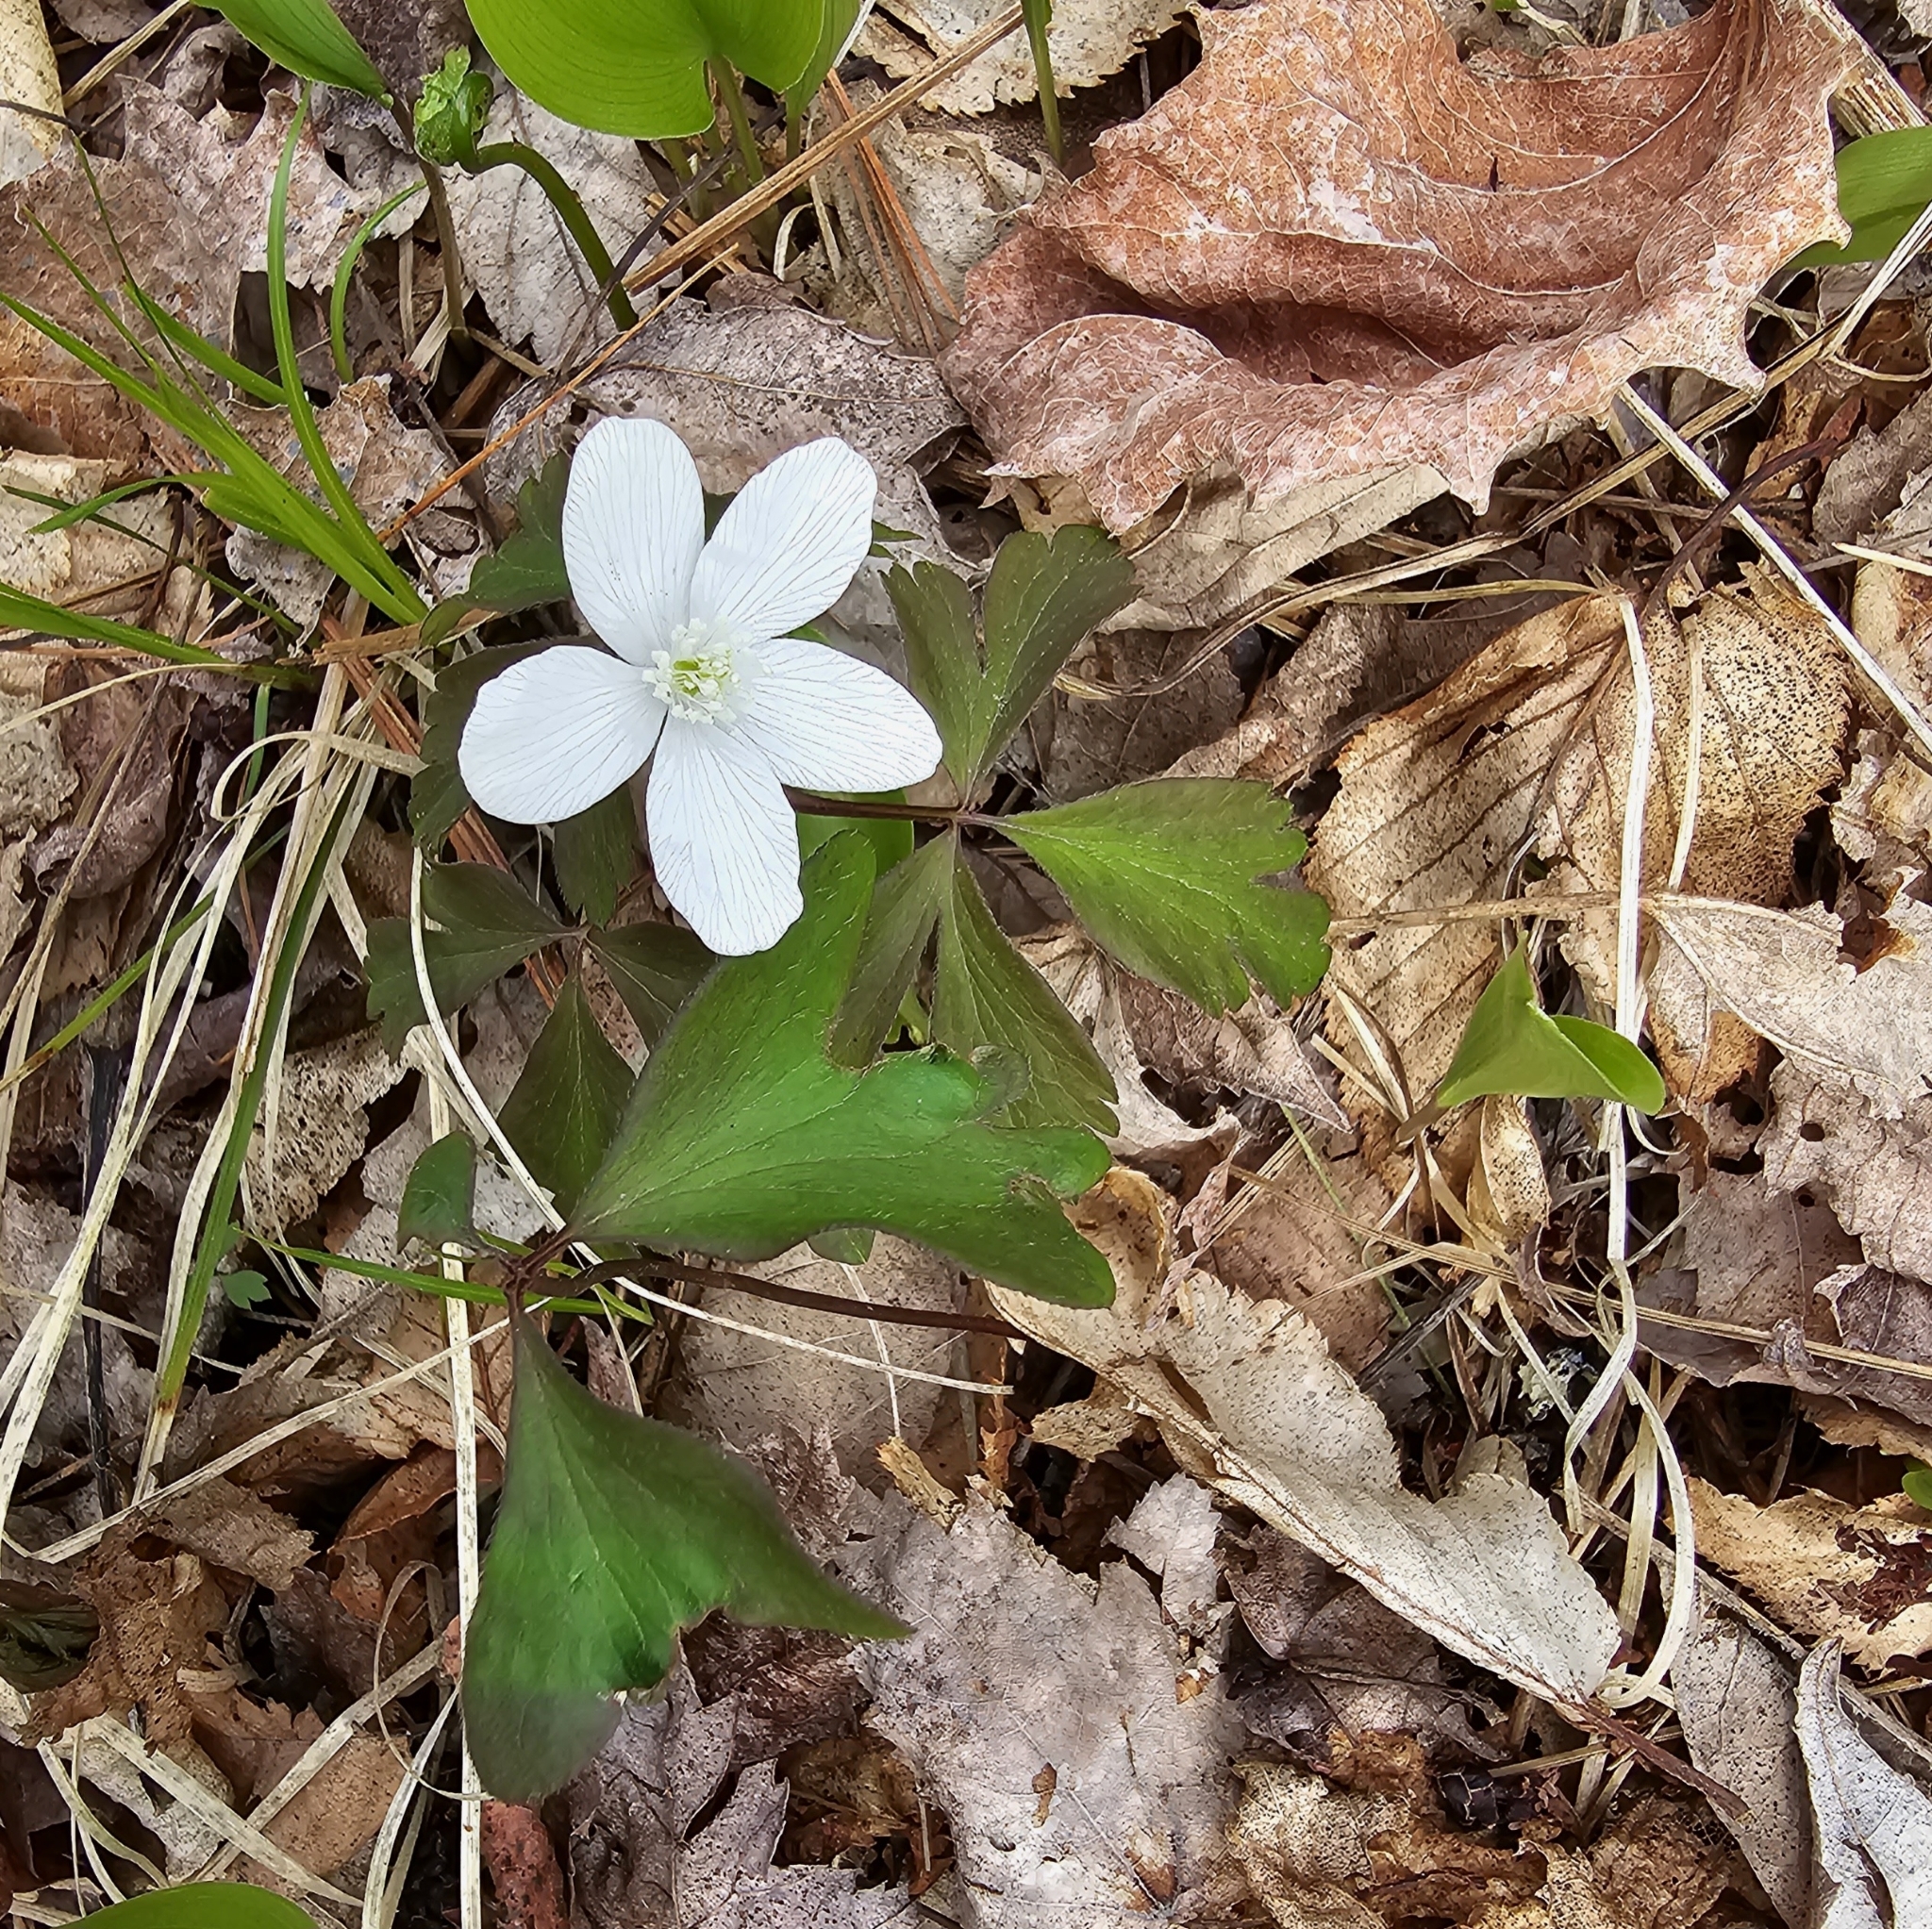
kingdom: Plantae
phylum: Tracheophyta
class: Magnoliopsida
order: Ranunculales
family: Ranunculaceae
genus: Anemone
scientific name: Anemone quinquefolia
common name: Wood anemone
